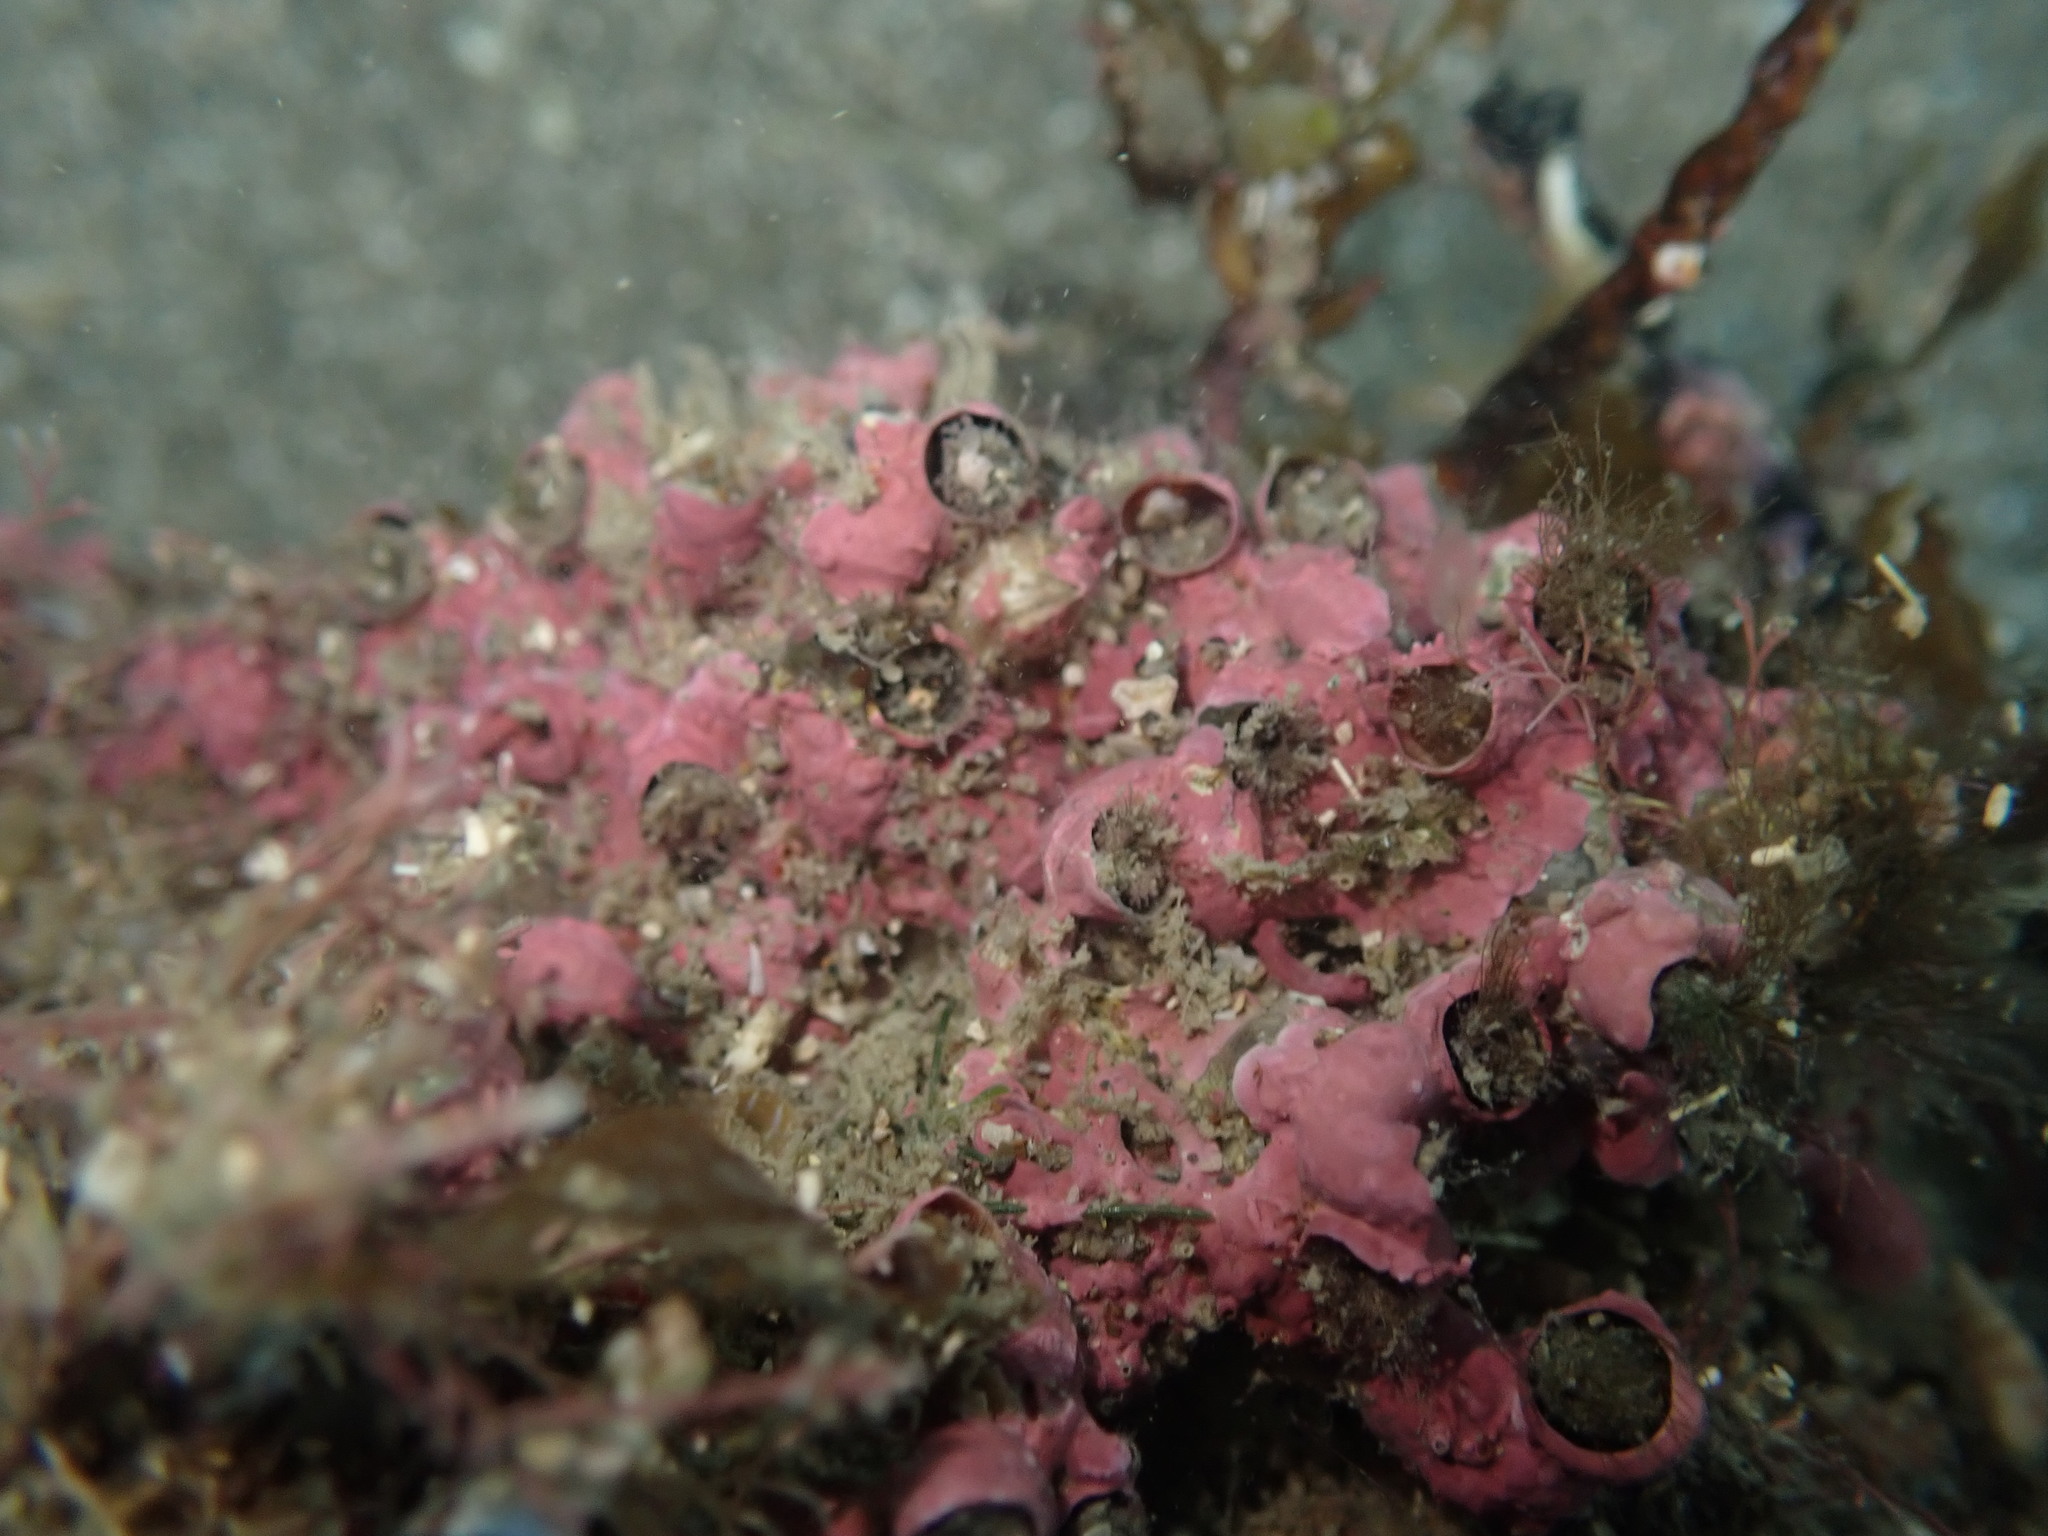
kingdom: Animalia
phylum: Mollusca
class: Gastropoda
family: Siliquariidae
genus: Stephopoma
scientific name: Stephopoma roseum
